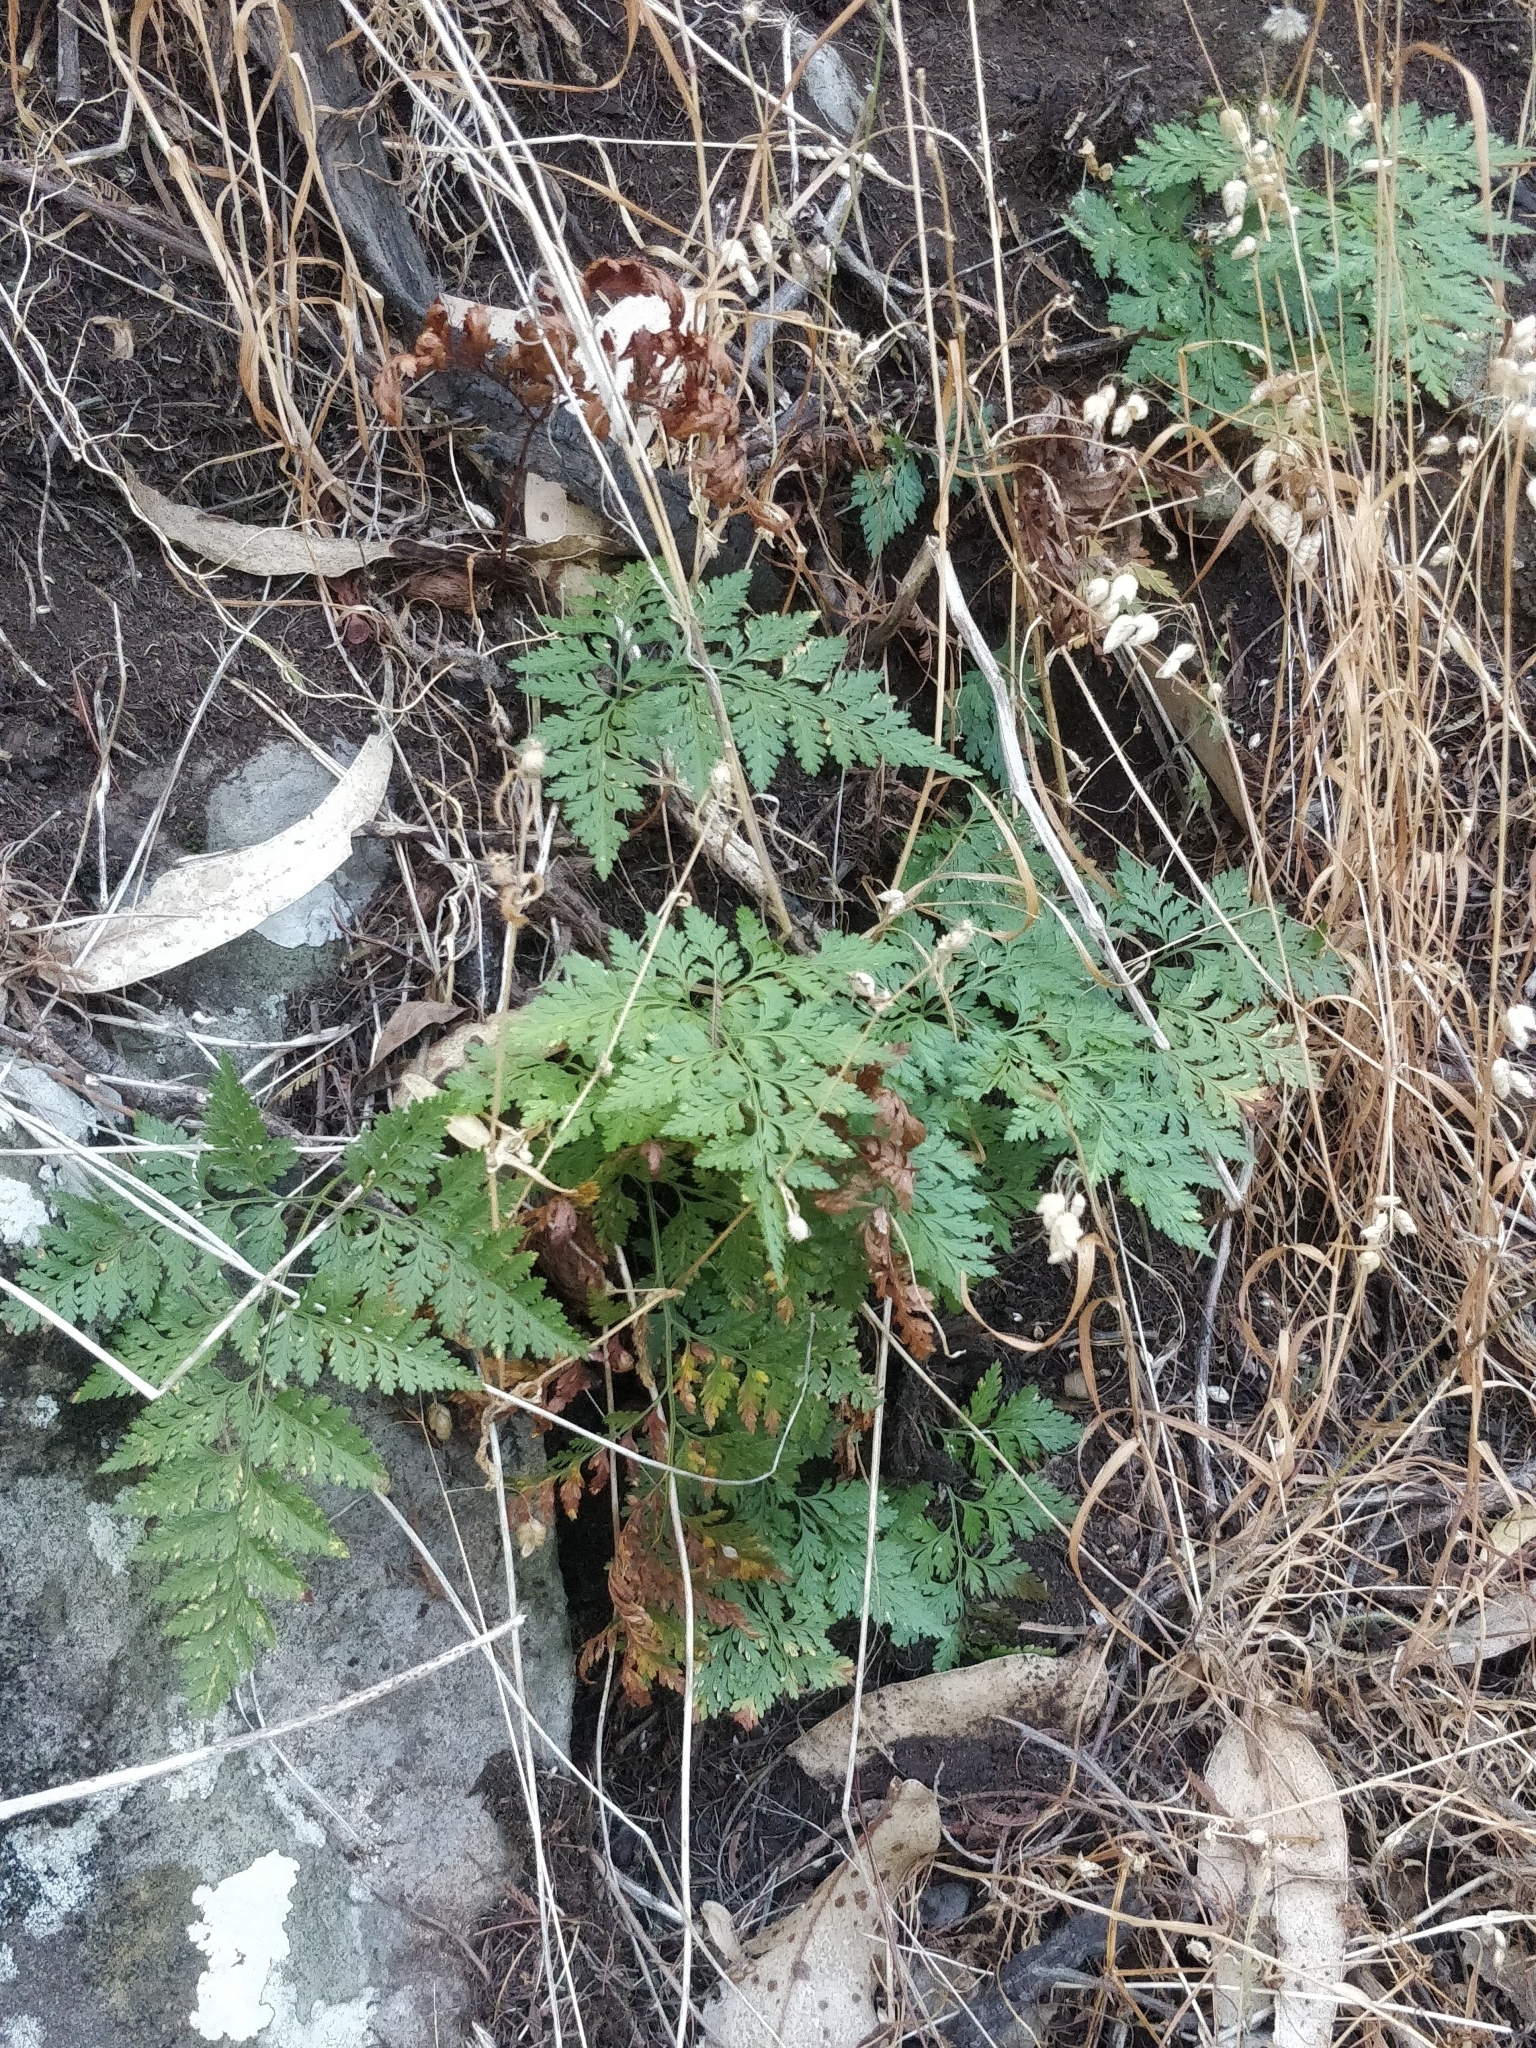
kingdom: Plantae
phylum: Tracheophyta
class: Polypodiopsida
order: Polypodiales
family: Davalliaceae
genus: Davallia
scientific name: Davallia canariensis
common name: Hare's-foot fern
